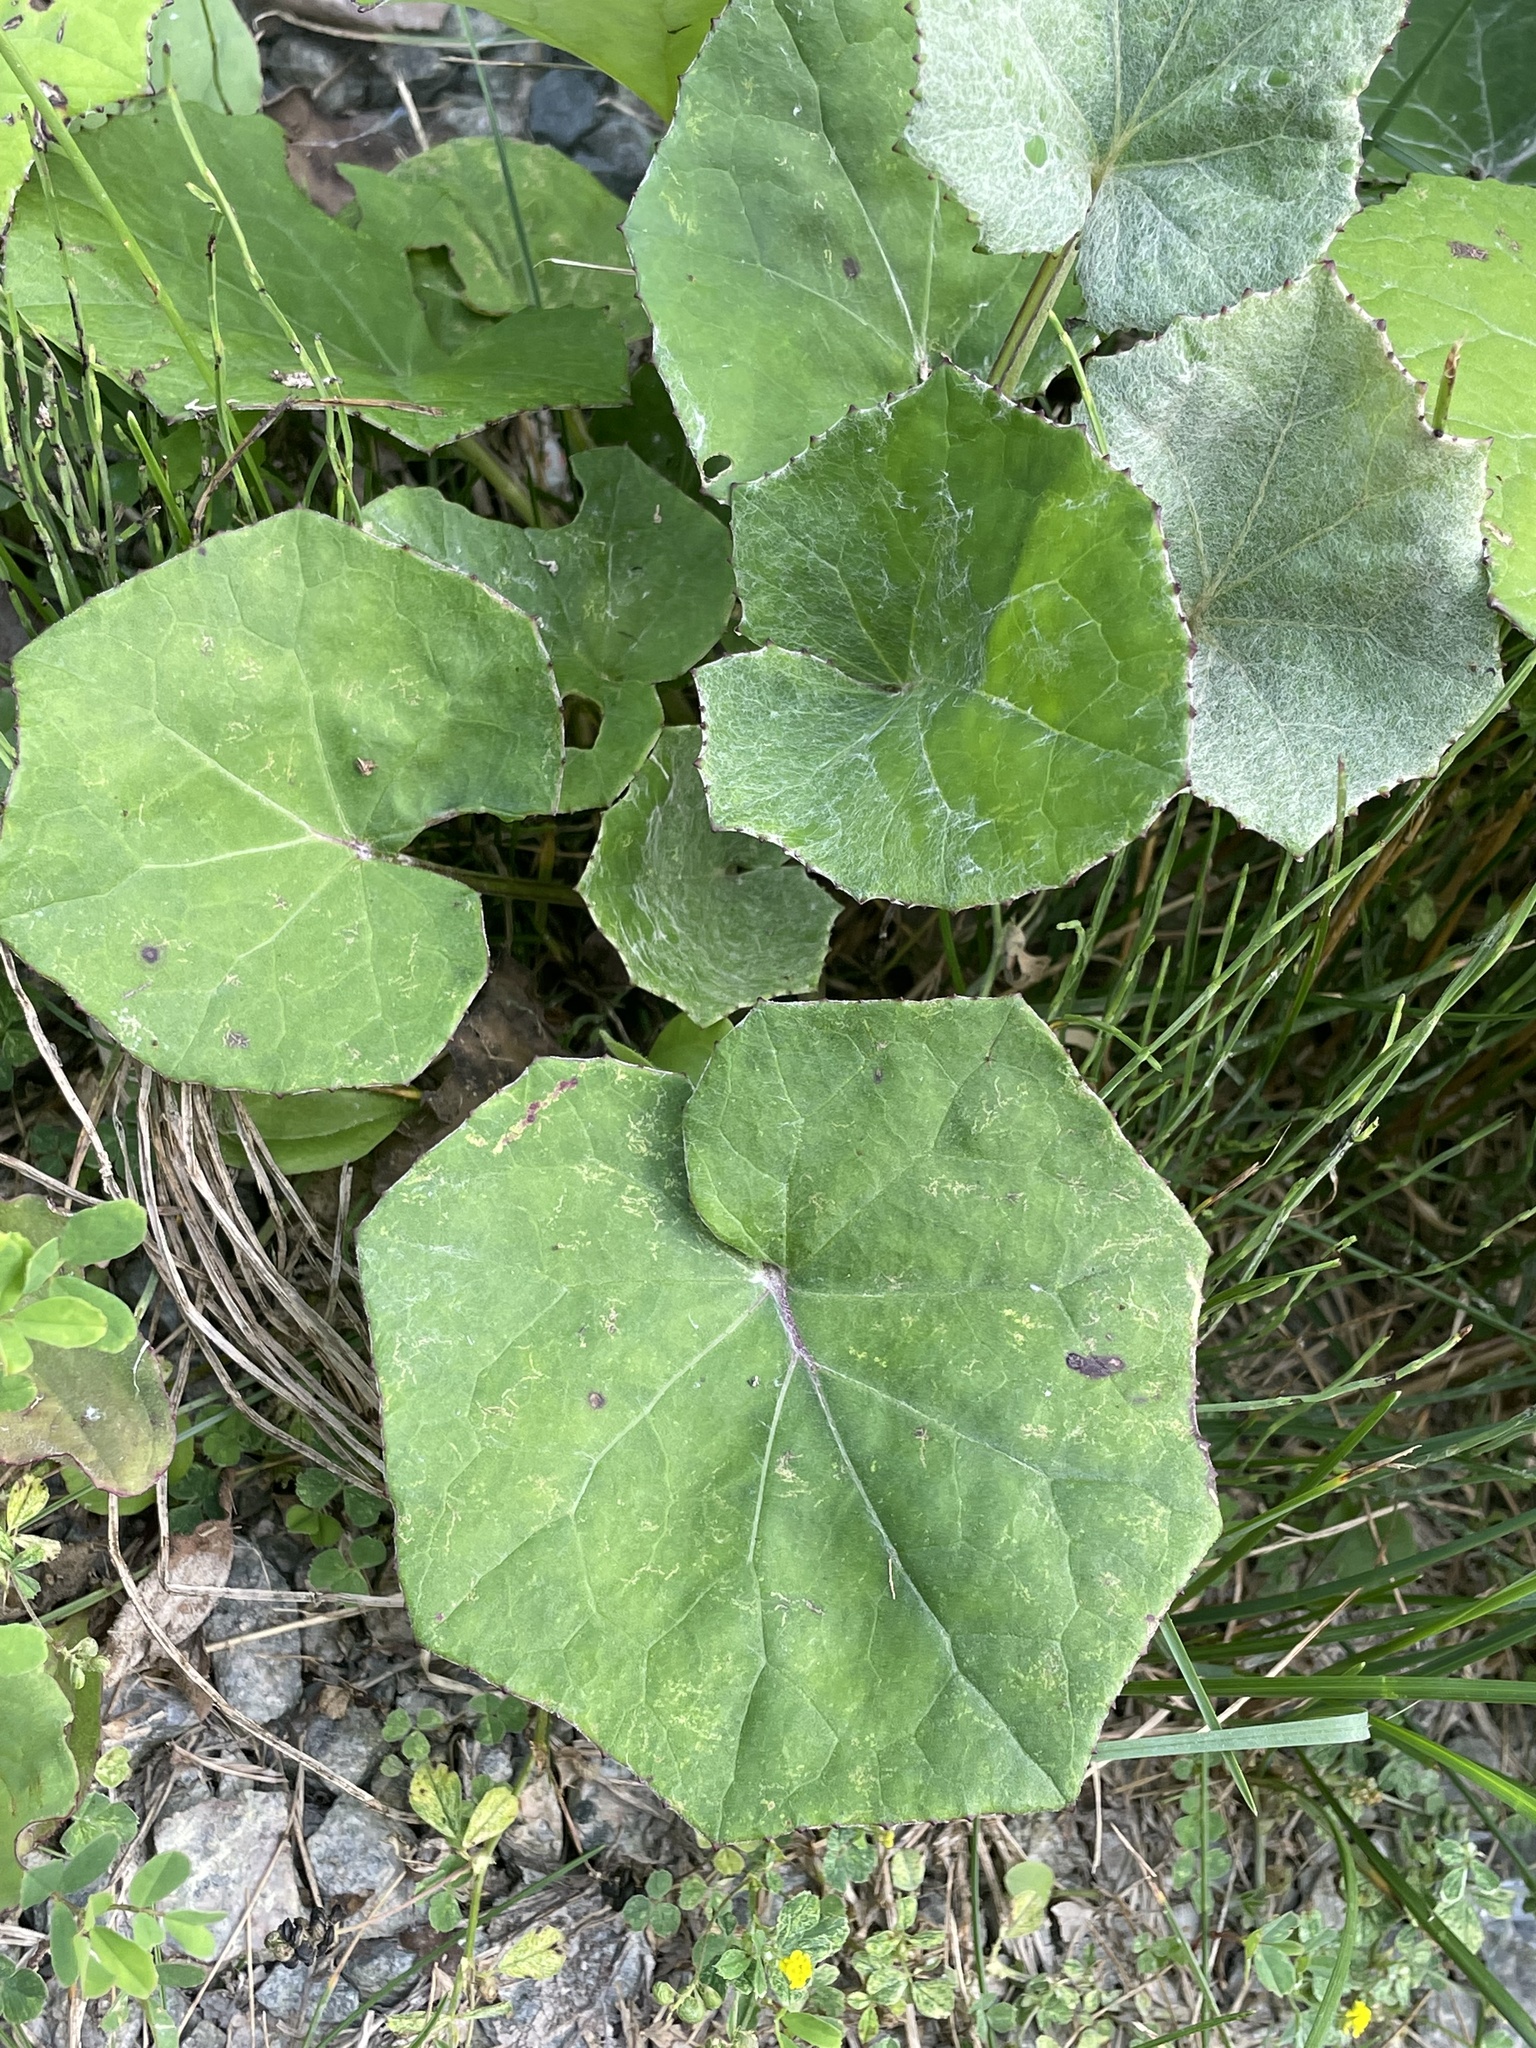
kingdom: Plantae
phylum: Tracheophyta
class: Magnoliopsida
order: Asterales
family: Asteraceae
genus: Tussilago
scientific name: Tussilago farfara
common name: Coltsfoot
